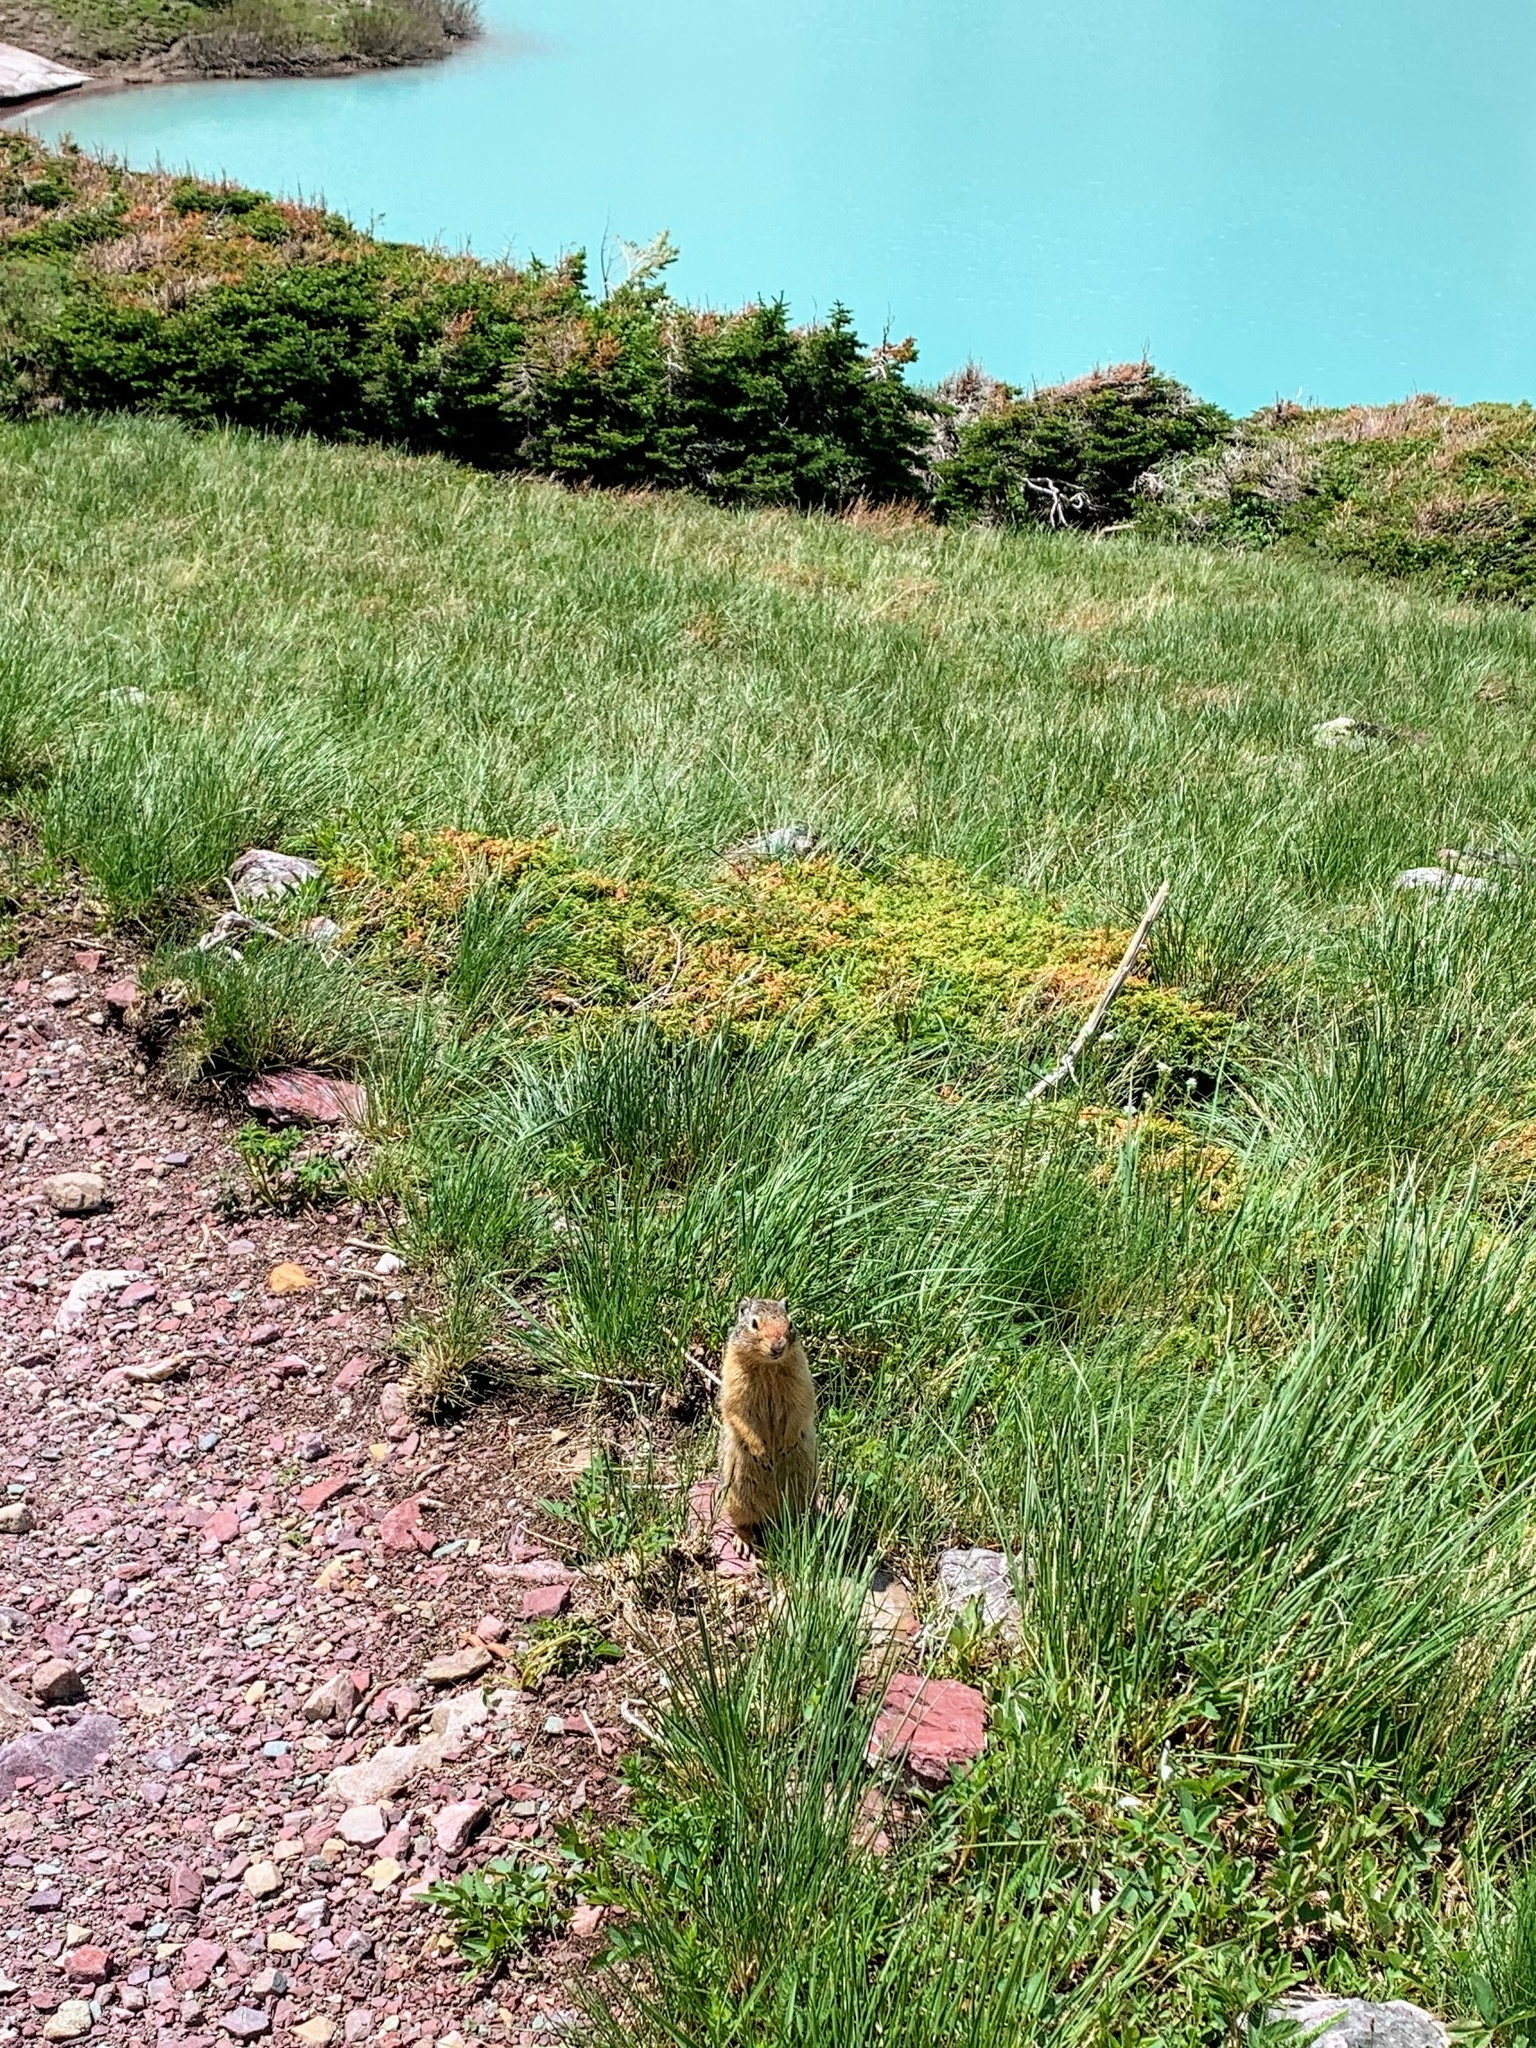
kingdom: Animalia
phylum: Chordata
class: Mammalia
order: Rodentia
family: Sciuridae
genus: Urocitellus
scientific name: Urocitellus columbianus
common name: Columbian ground squirrel
